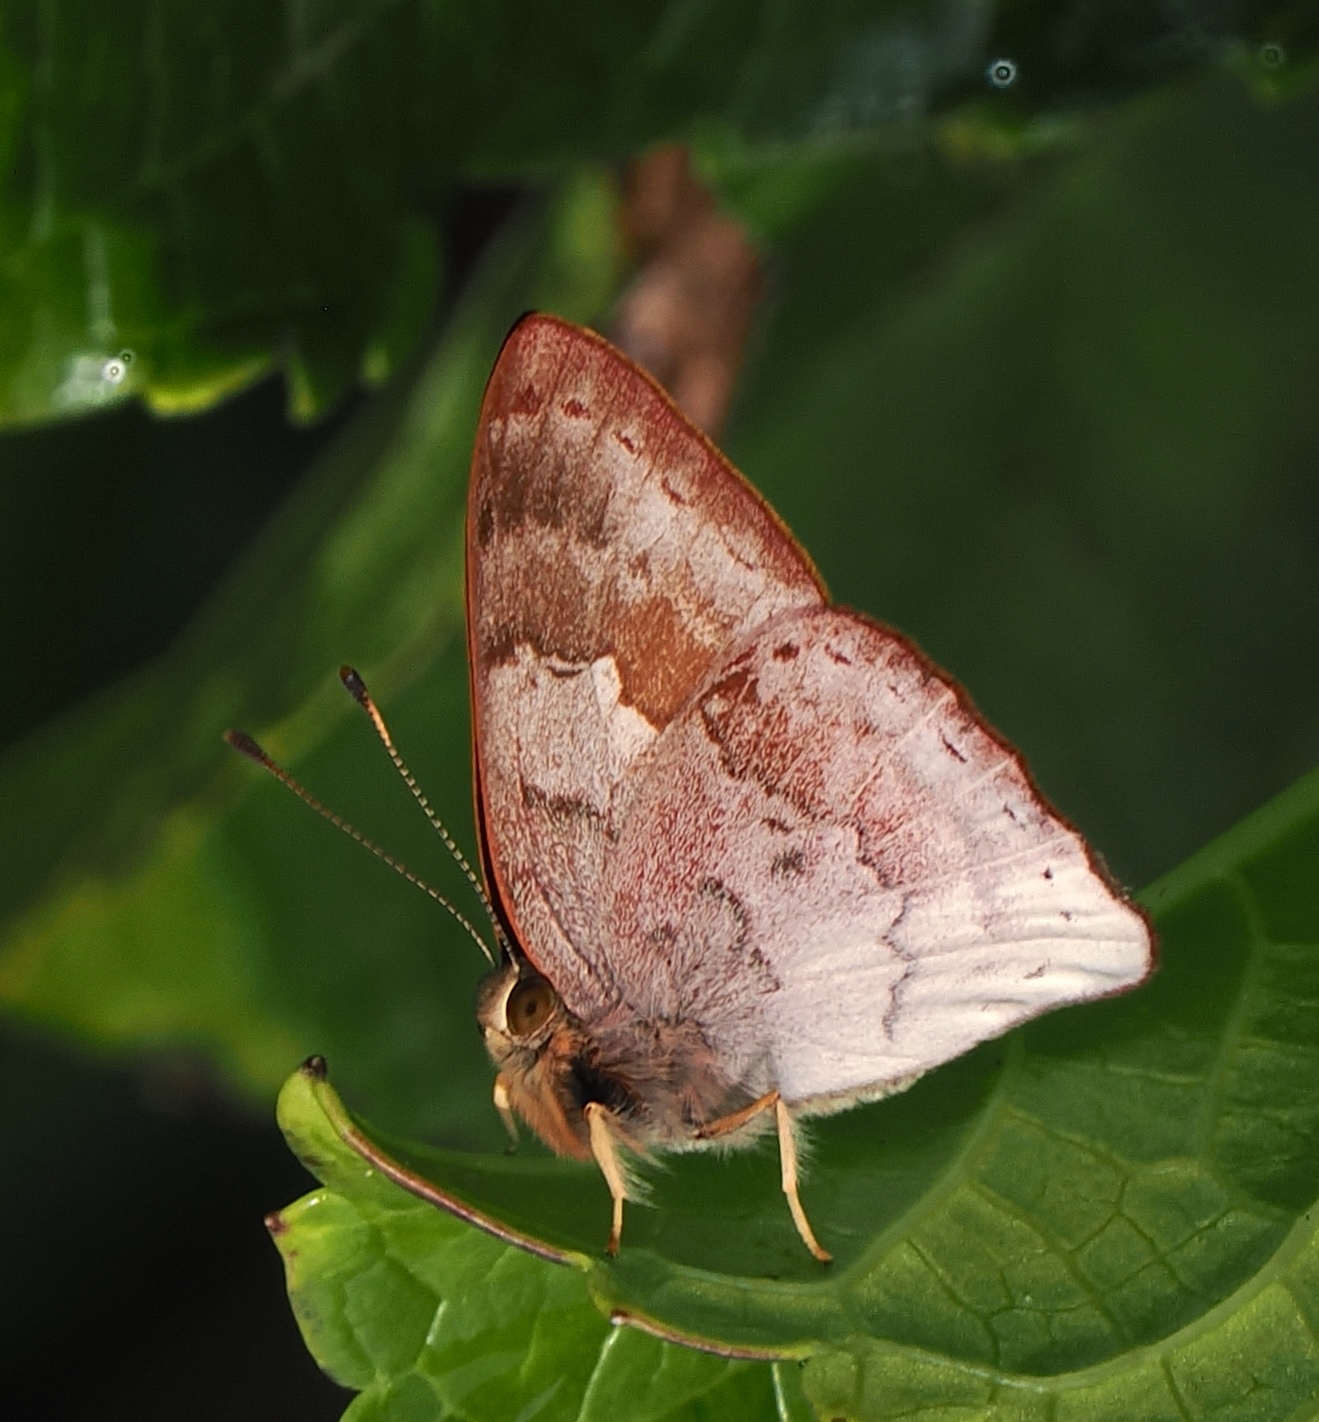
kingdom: Animalia
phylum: Arthropoda
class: Insecta
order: Lepidoptera
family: Lycaenidae
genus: Euselasia
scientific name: Euselasia thucydides
